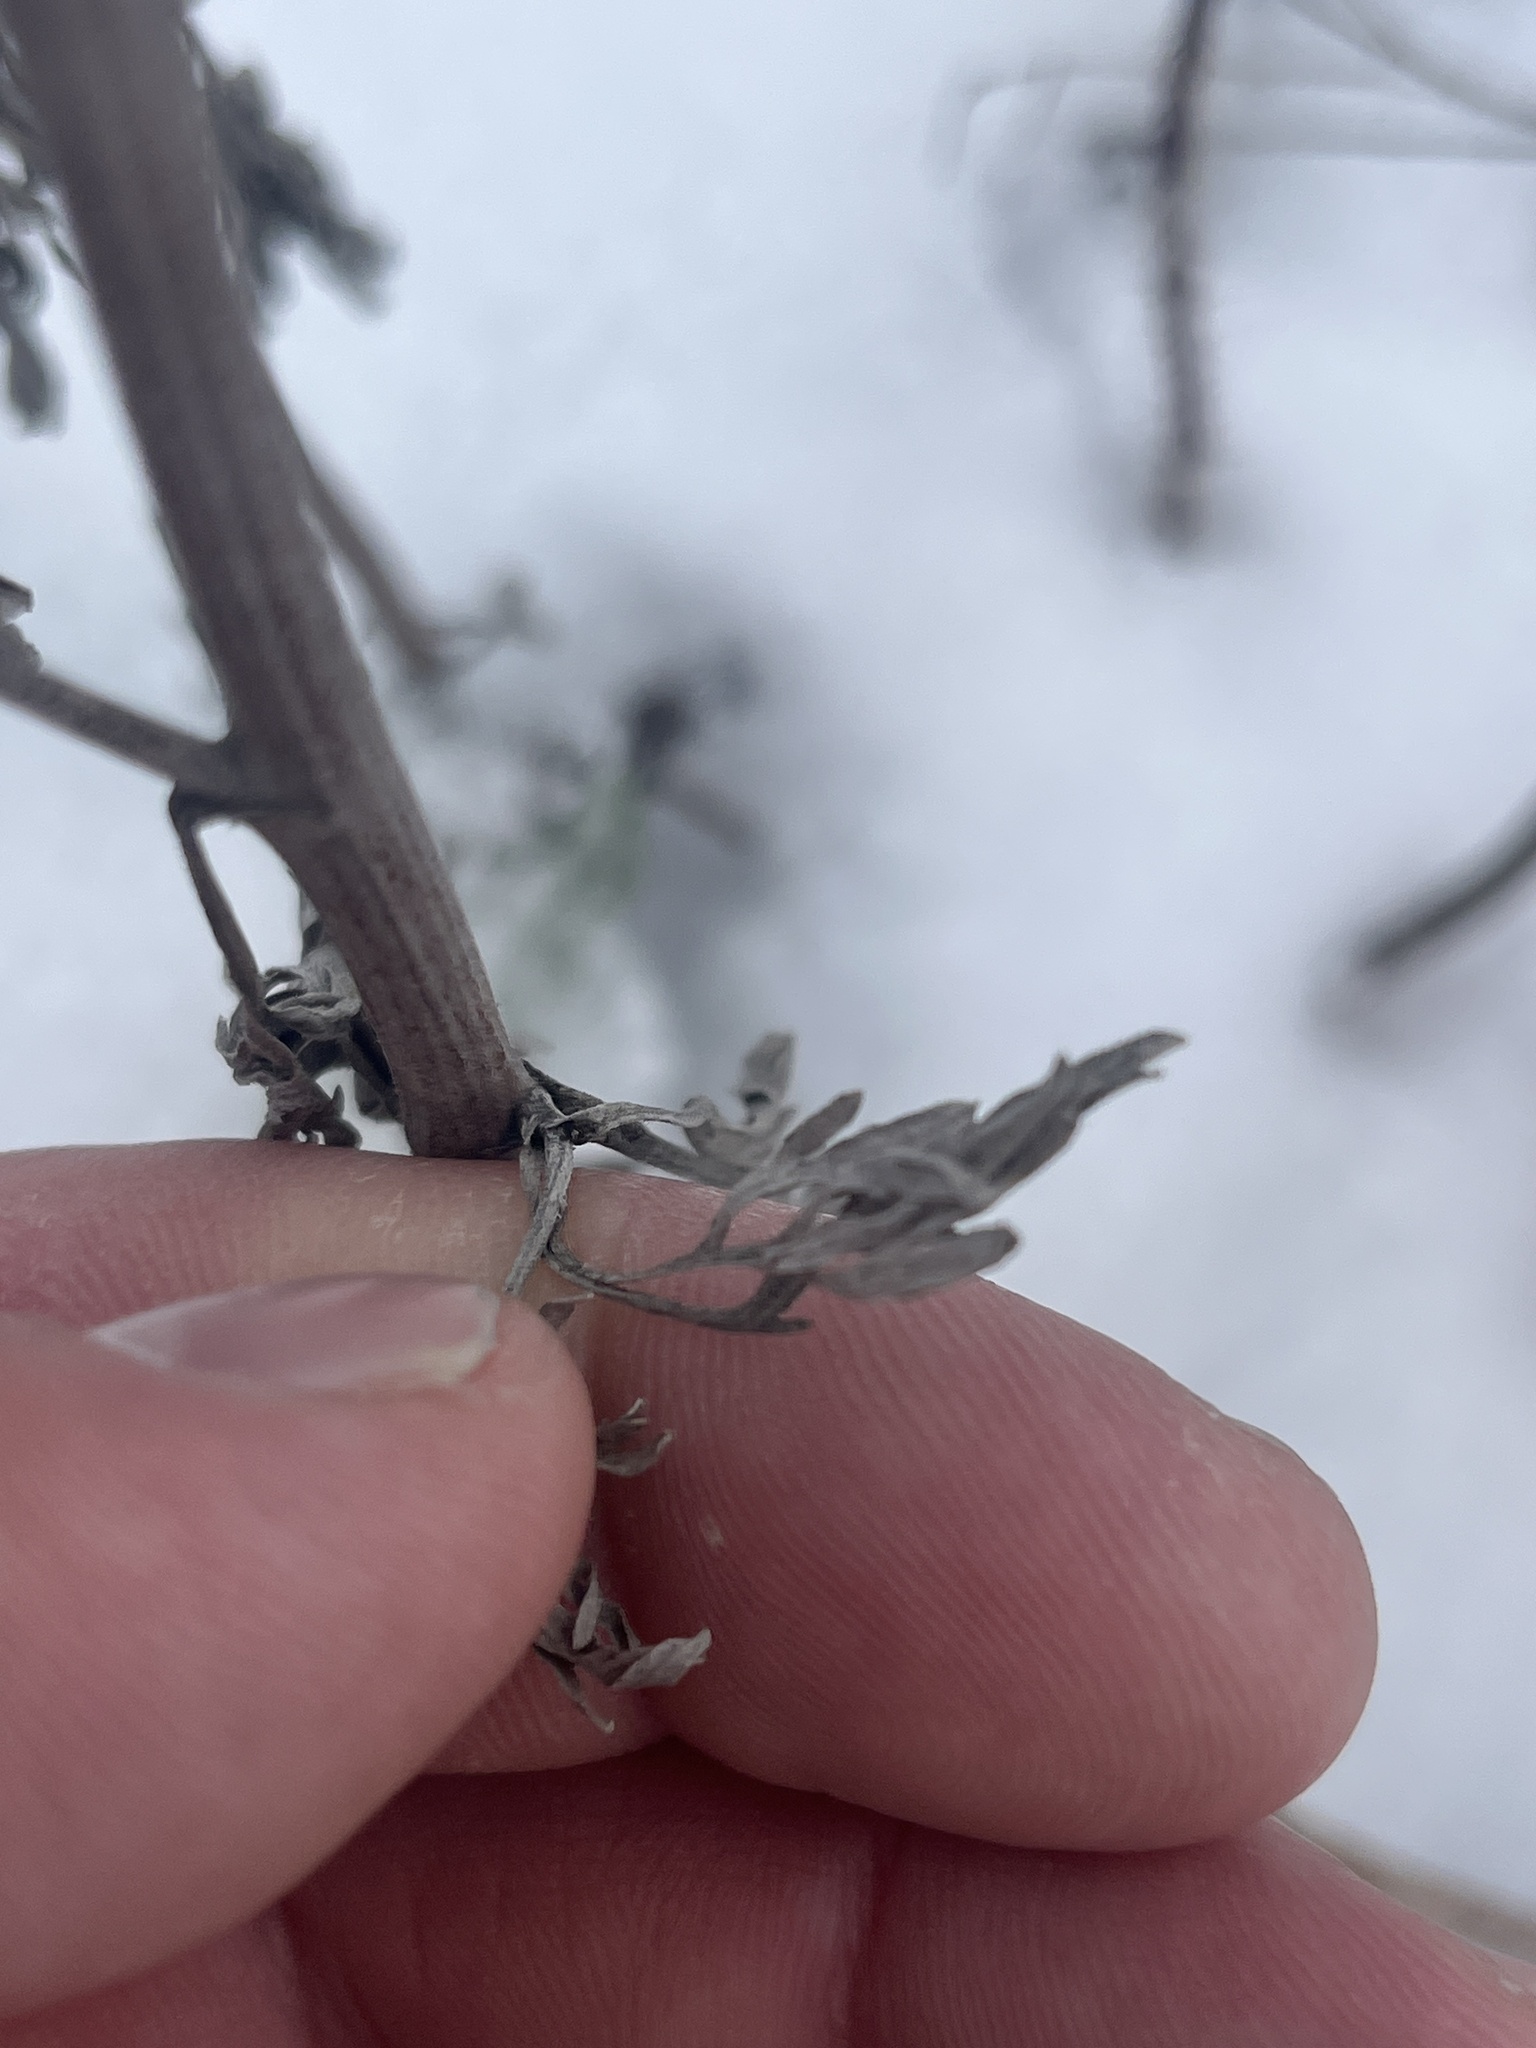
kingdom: Plantae
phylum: Tracheophyta
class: Magnoliopsida
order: Asterales
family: Asteraceae
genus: Artemisia
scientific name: Artemisia absinthium
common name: Wormwood
